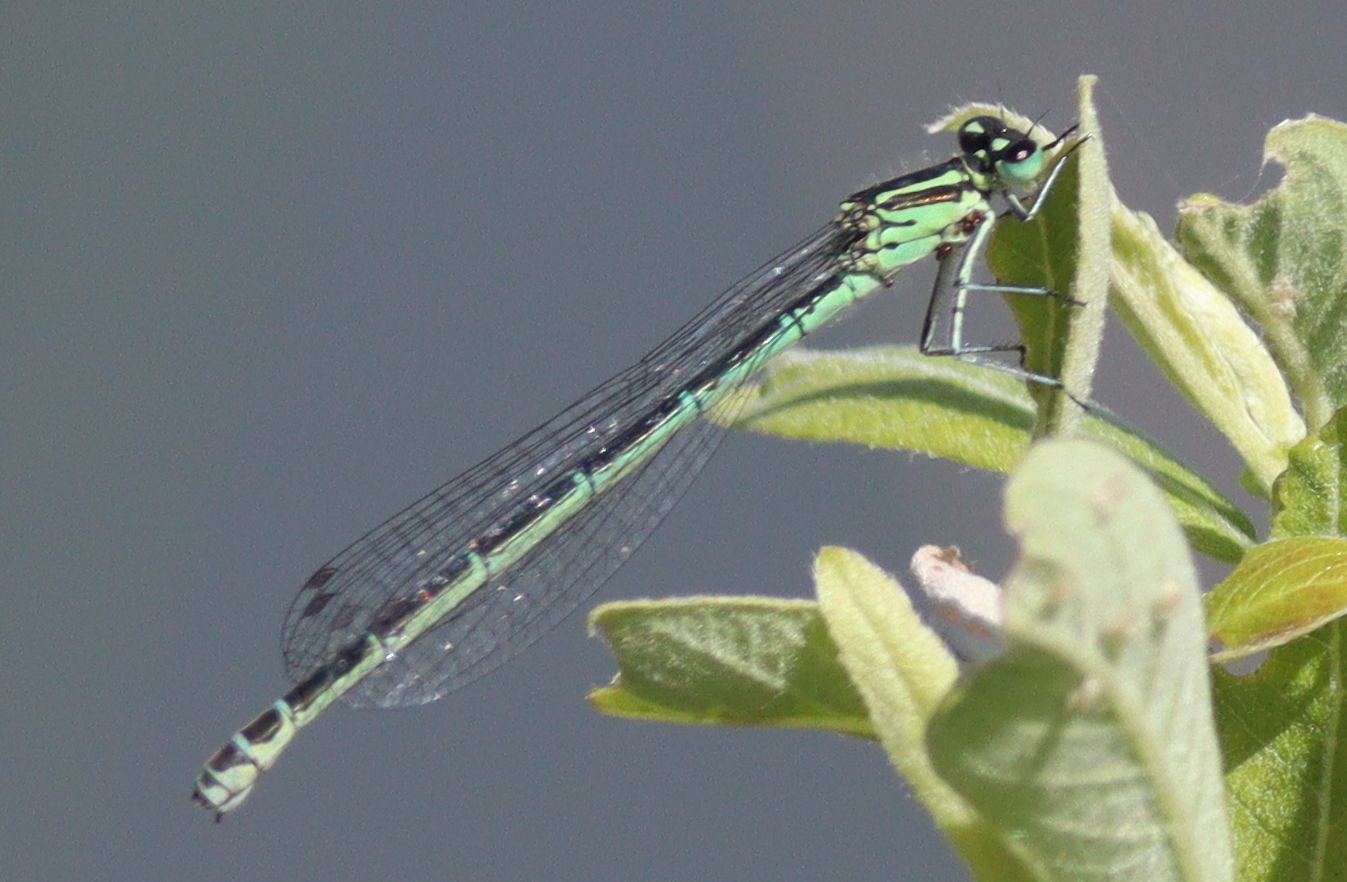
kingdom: Animalia
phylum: Arthropoda
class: Insecta
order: Odonata
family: Coenagrionidae
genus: Coenagrion
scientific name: Coenagrion puella
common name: Azure damselfly
